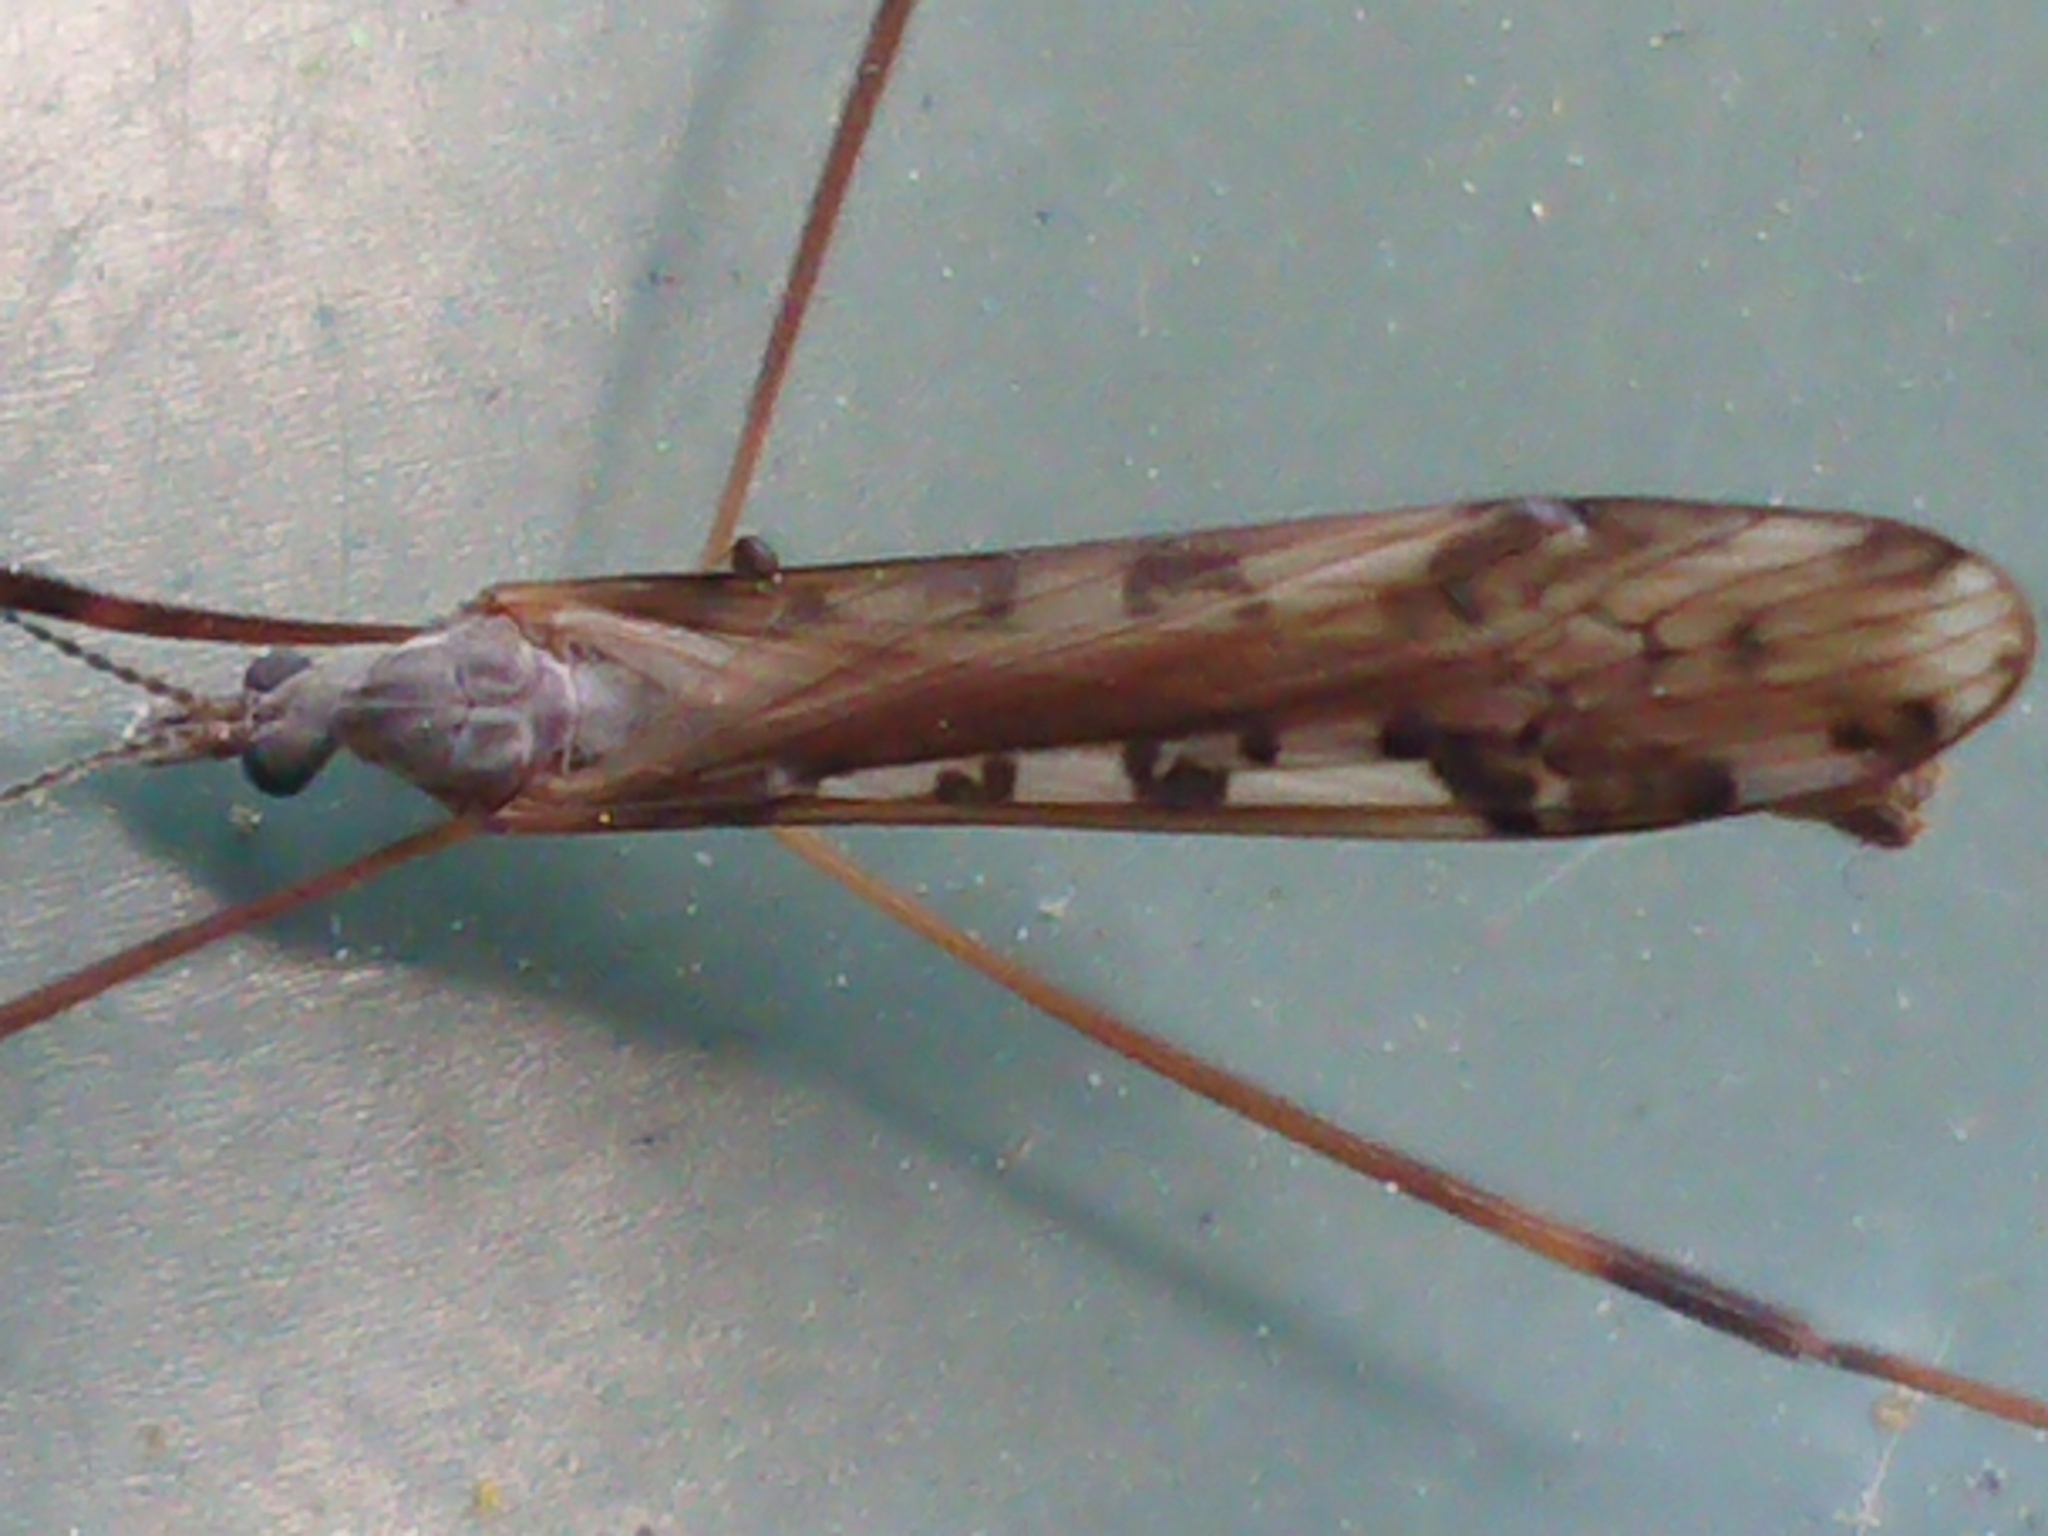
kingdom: Animalia
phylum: Arthropoda
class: Insecta
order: Diptera
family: Limoniidae
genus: Paralimnophila
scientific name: Paralimnophila skusei
